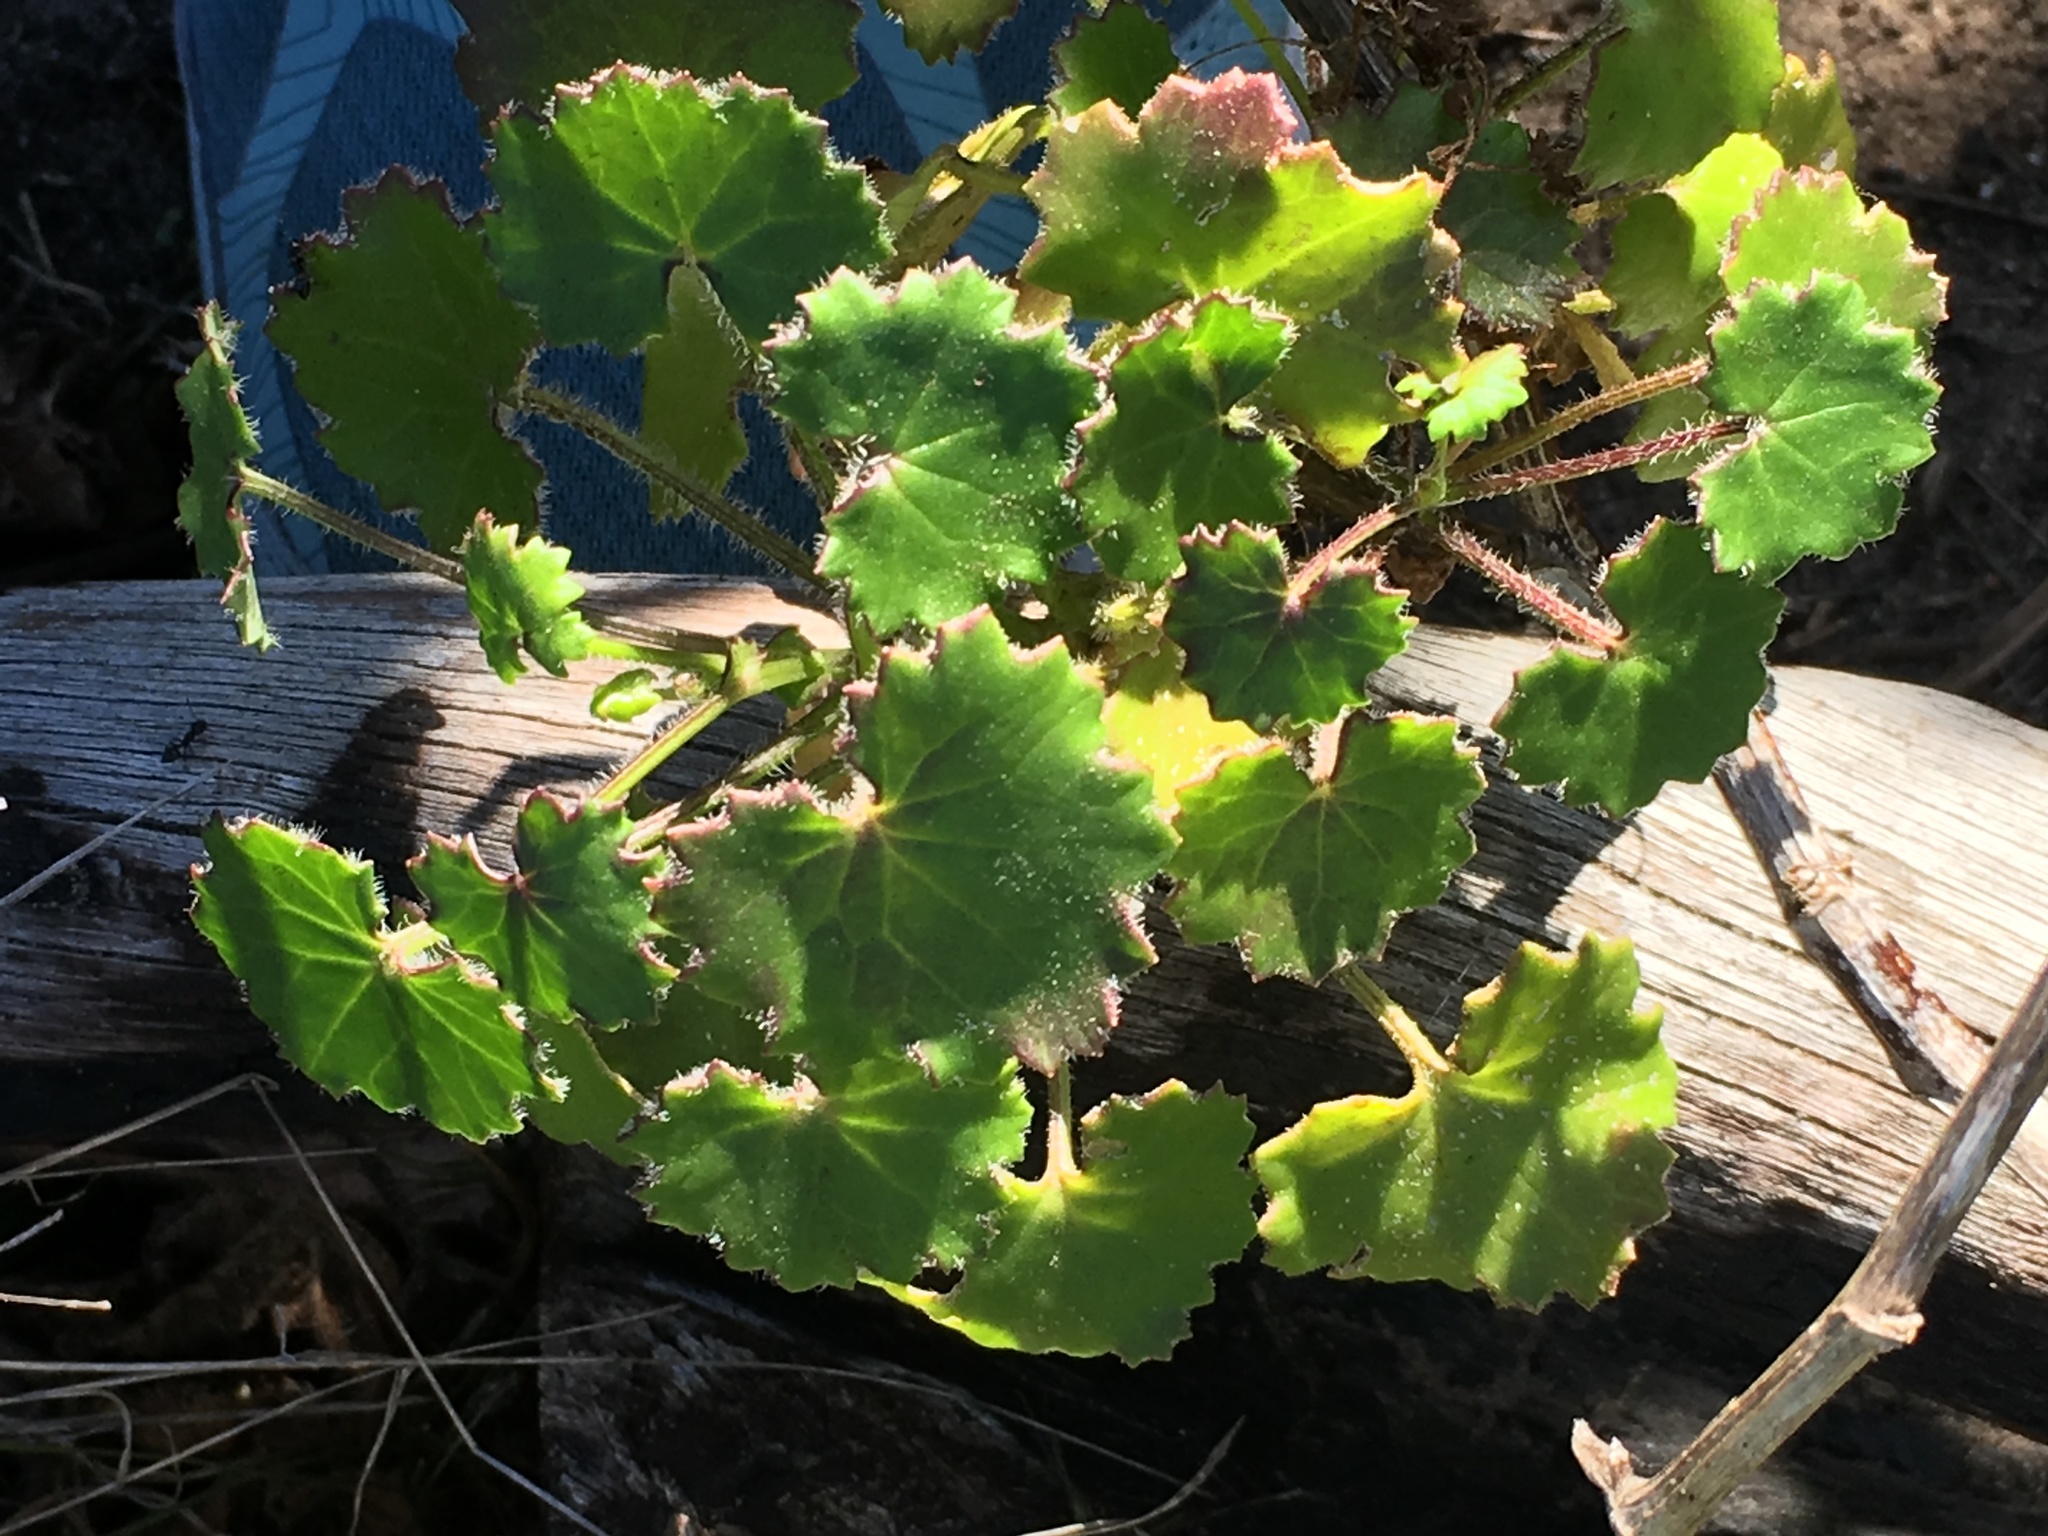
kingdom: Plantae
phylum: Tracheophyta
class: Magnoliopsida
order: Asterales
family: Asteraceae
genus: Cineraria
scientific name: Cineraria geifolia
